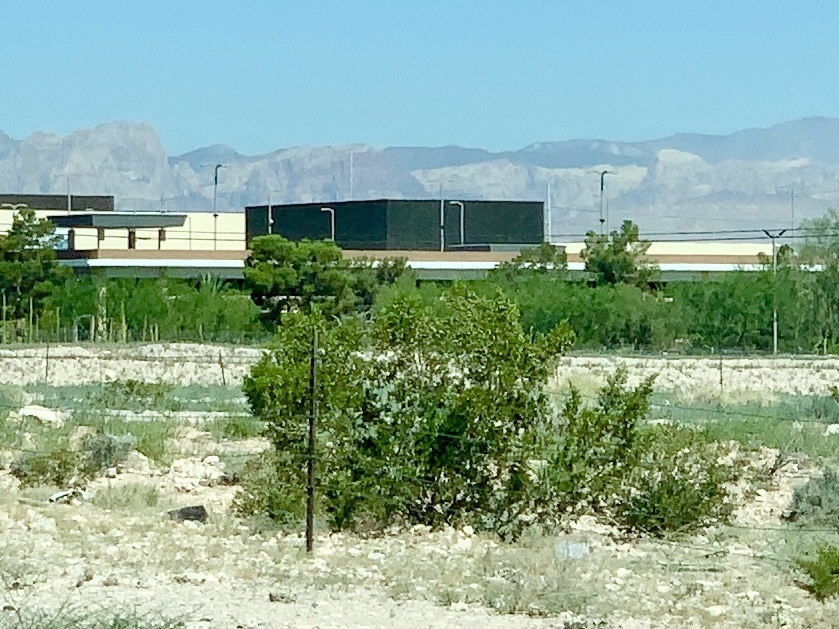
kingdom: Plantae
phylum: Tracheophyta
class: Magnoliopsida
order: Zygophyllales
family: Zygophyllaceae
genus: Larrea
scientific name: Larrea tridentata
